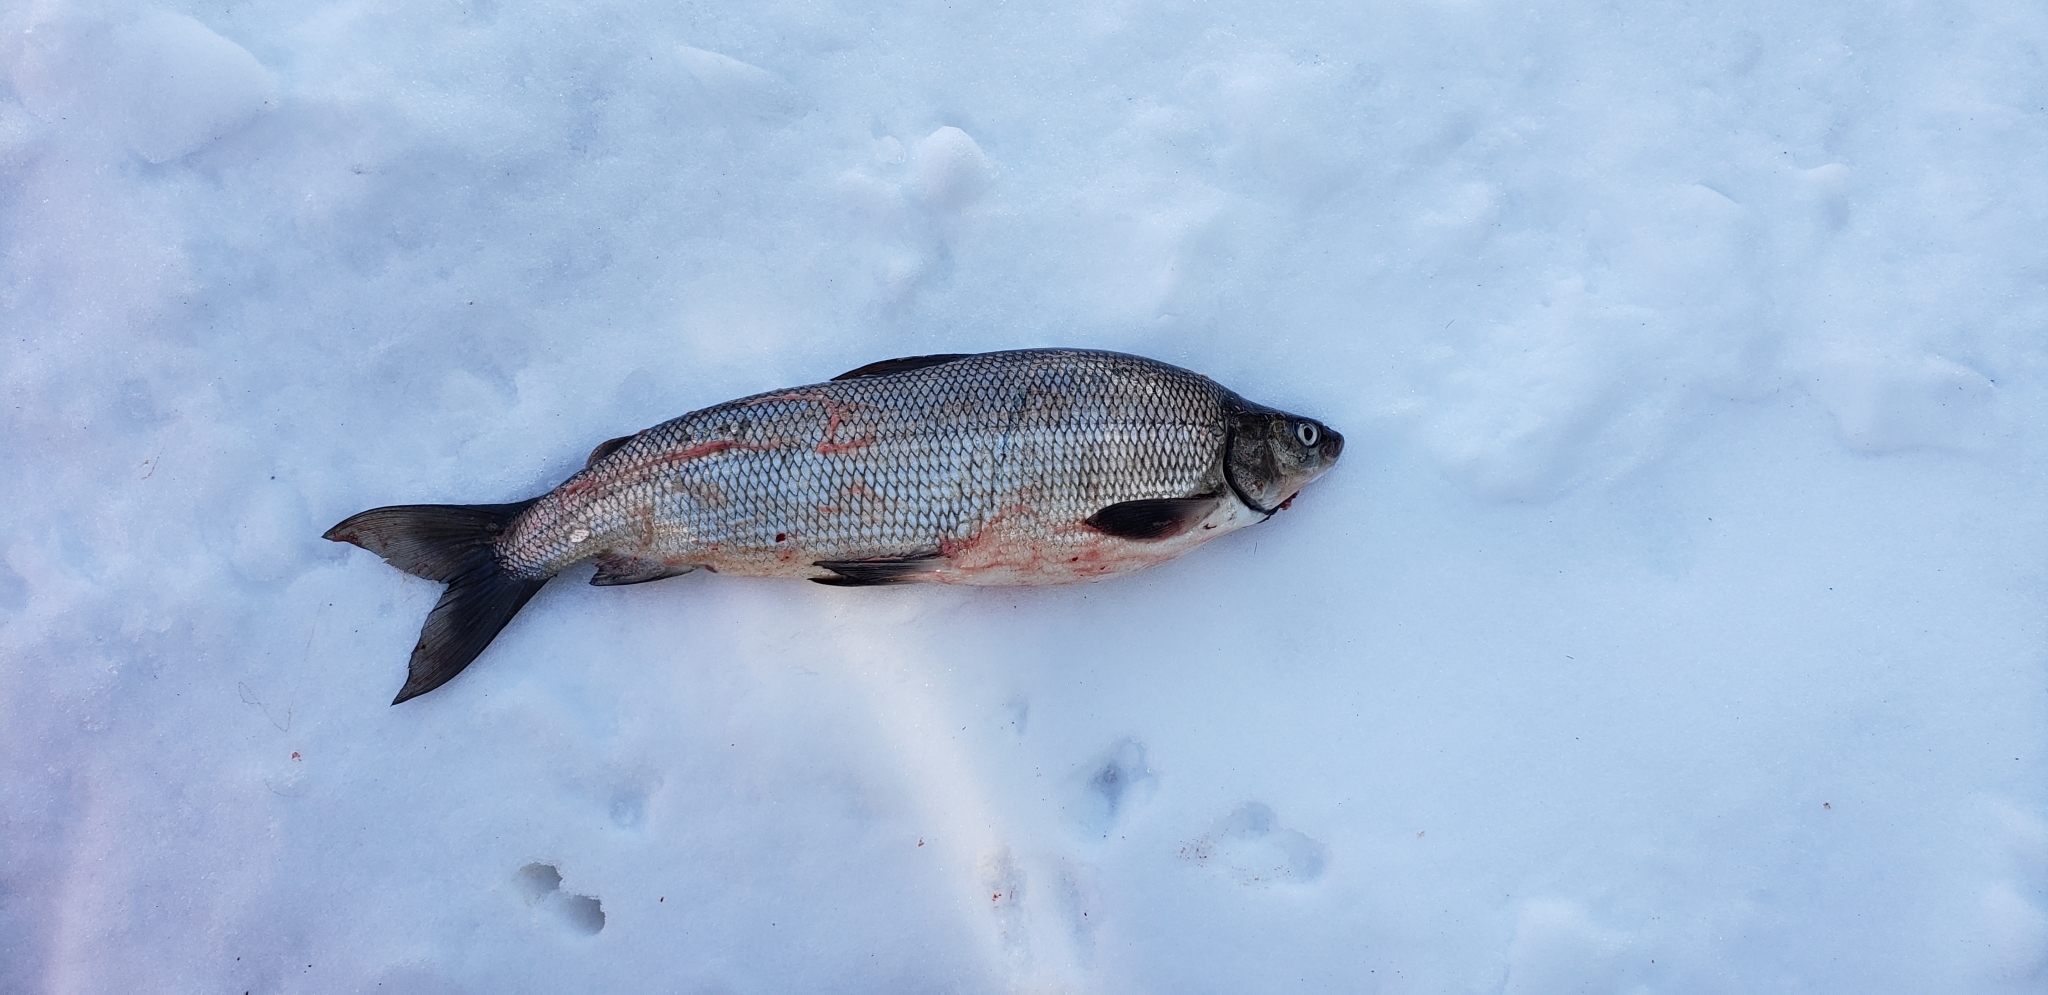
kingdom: Animalia
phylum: Chordata
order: Salmoniformes
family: Salmonidae
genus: Coregonus
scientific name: Coregonus clupeaformis
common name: Lake whitefish
